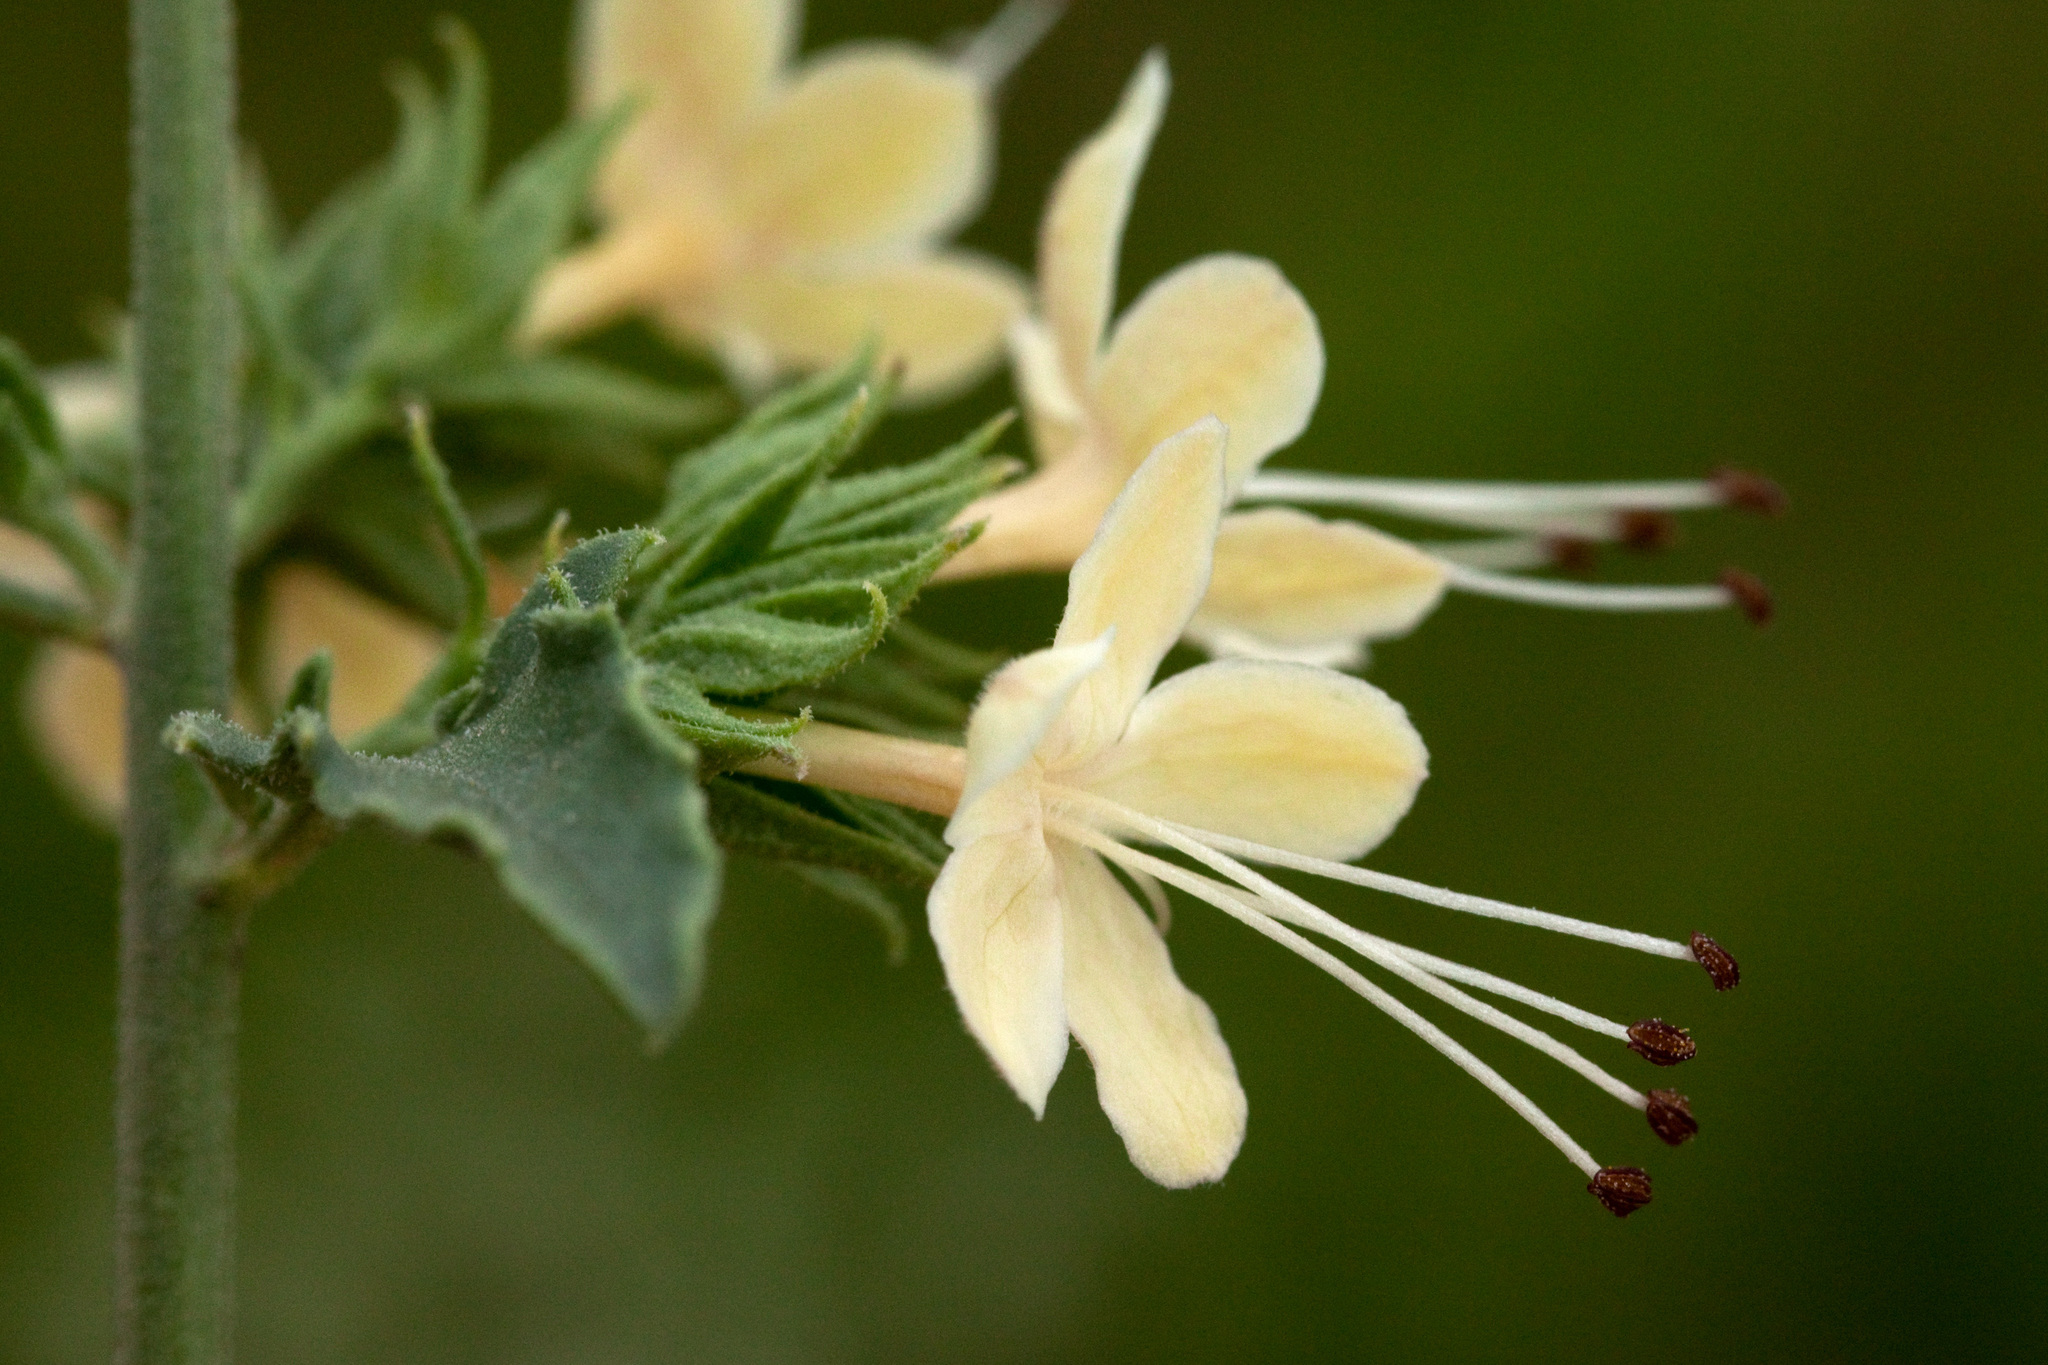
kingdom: Plantae
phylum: Tracheophyta
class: Magnoliopsida
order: Lamiales
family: Lamiaceae
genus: Tetraclea
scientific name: Tetraclea coulteri
